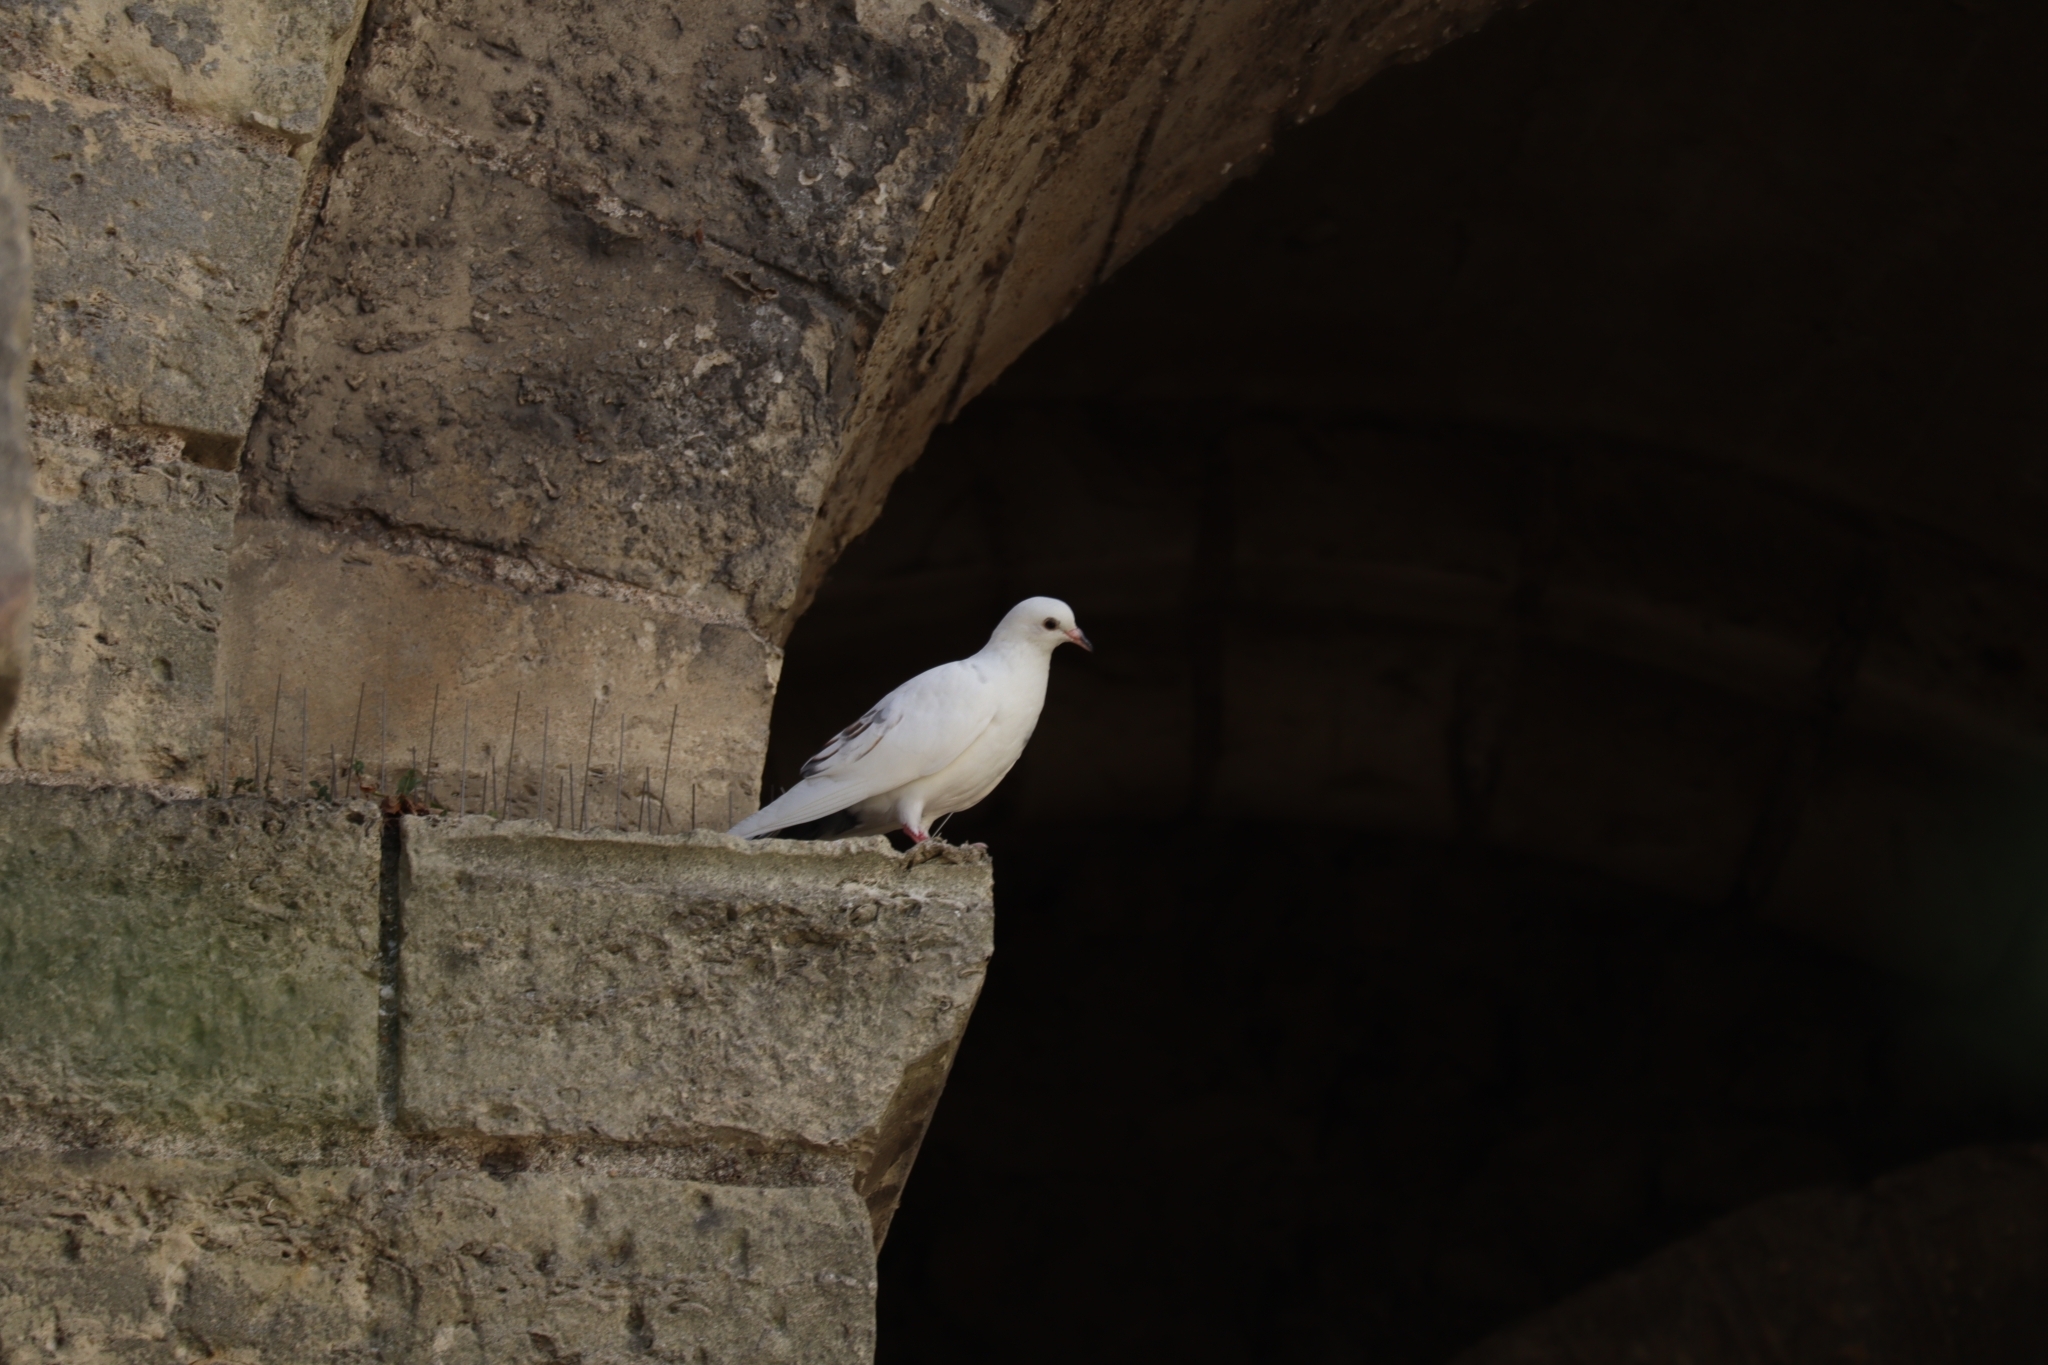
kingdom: Animalia
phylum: Chordata
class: Aves
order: Columbiformes
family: Columbidae
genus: Columba
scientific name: Columba livia
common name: Rock pigeon
